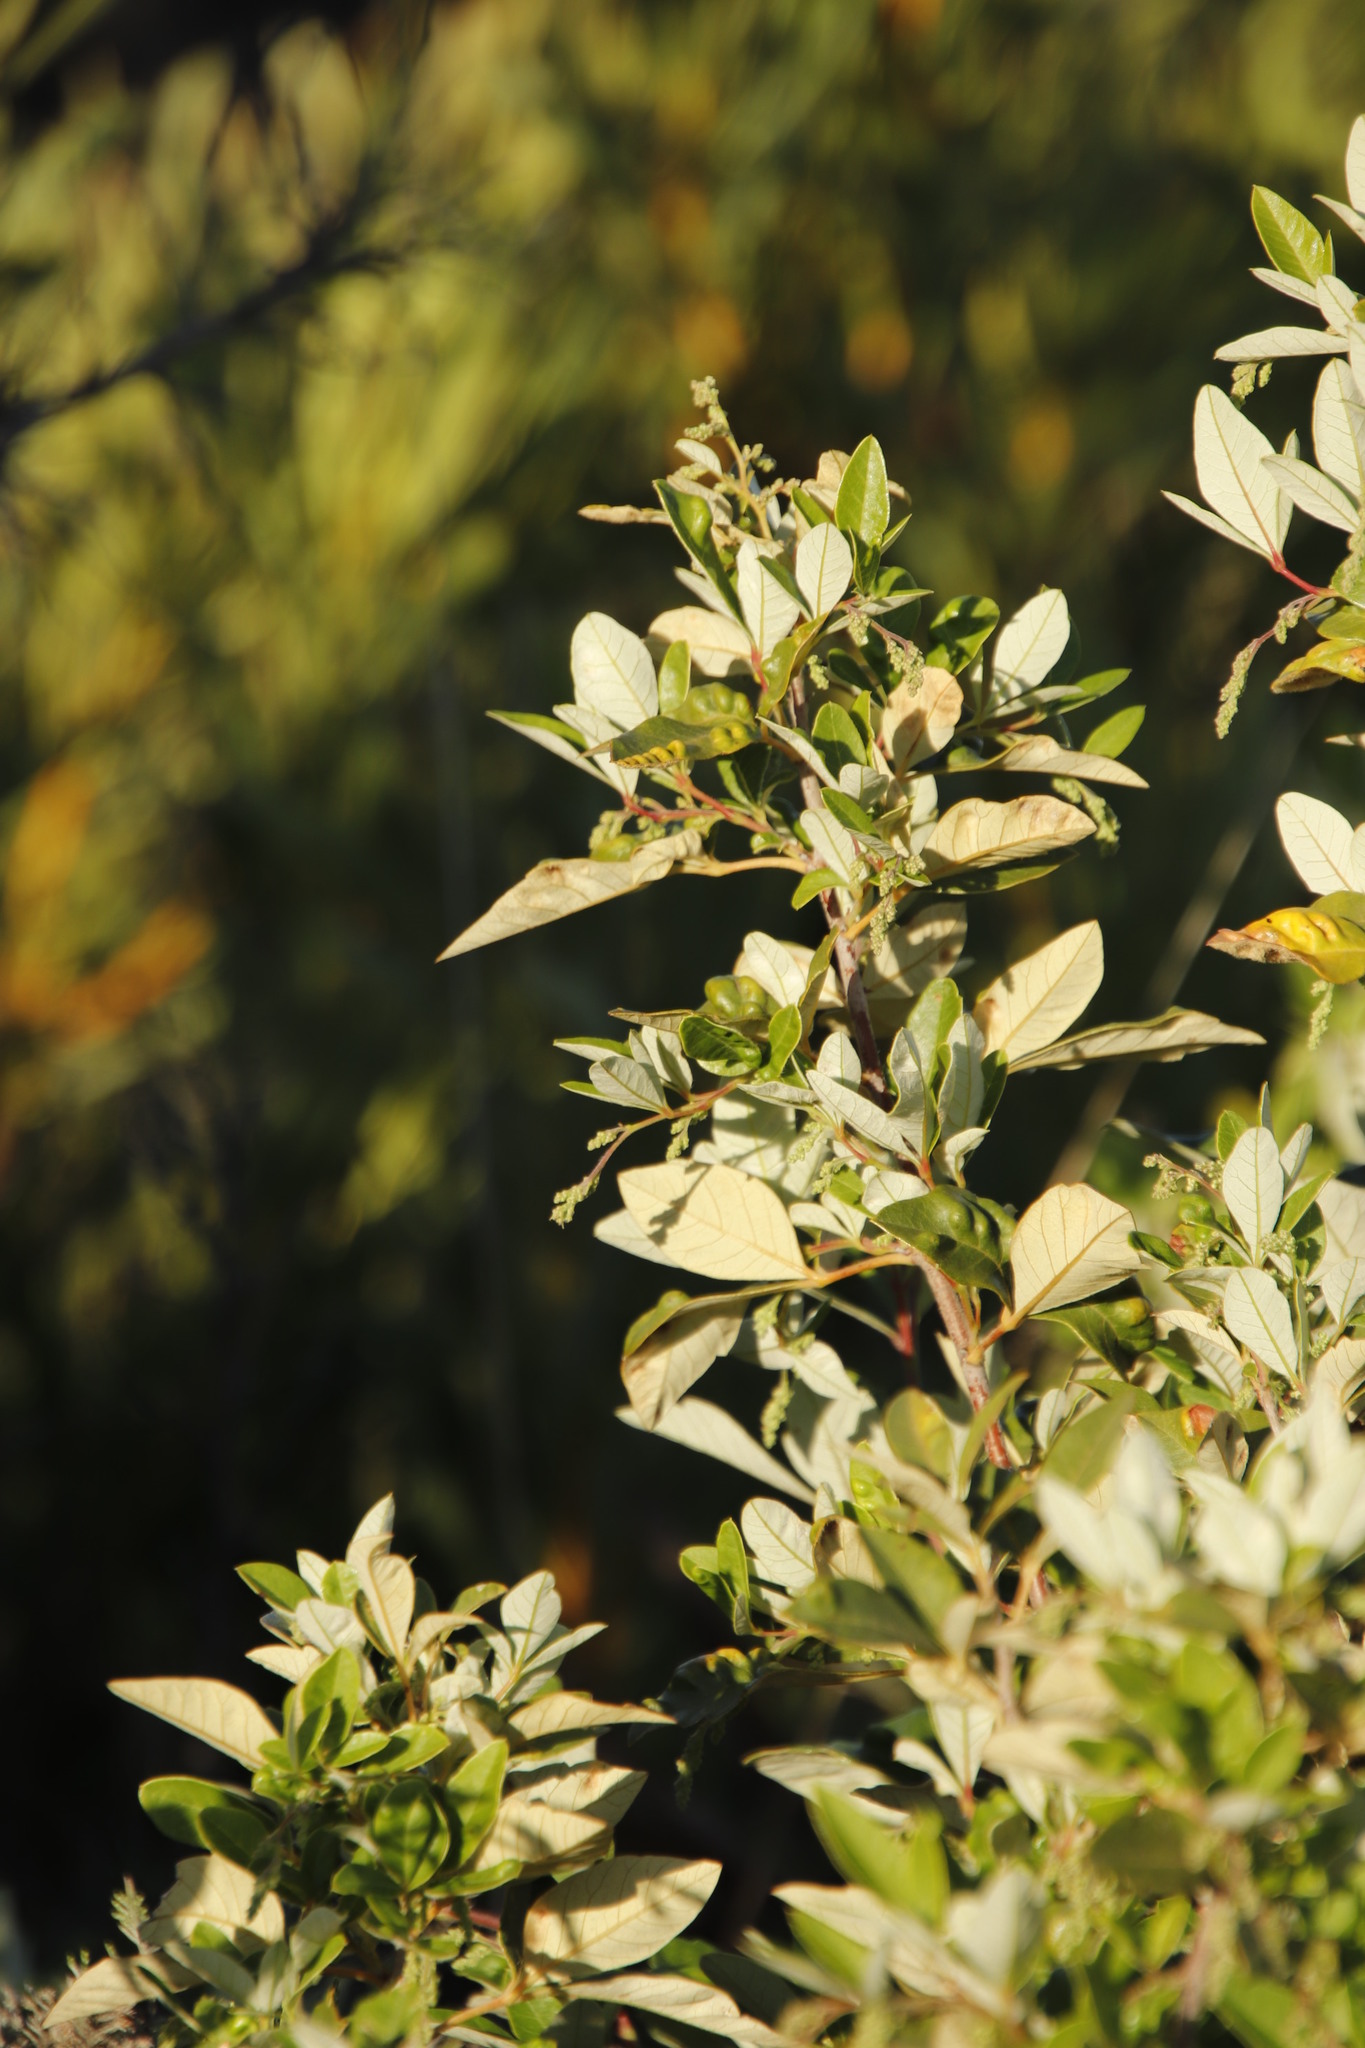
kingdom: Plantae
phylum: Tracheophyta
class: Magnoliopsida
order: Sapindales
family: Anacardiaceae
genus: Searsia
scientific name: Searsia tomentosa
